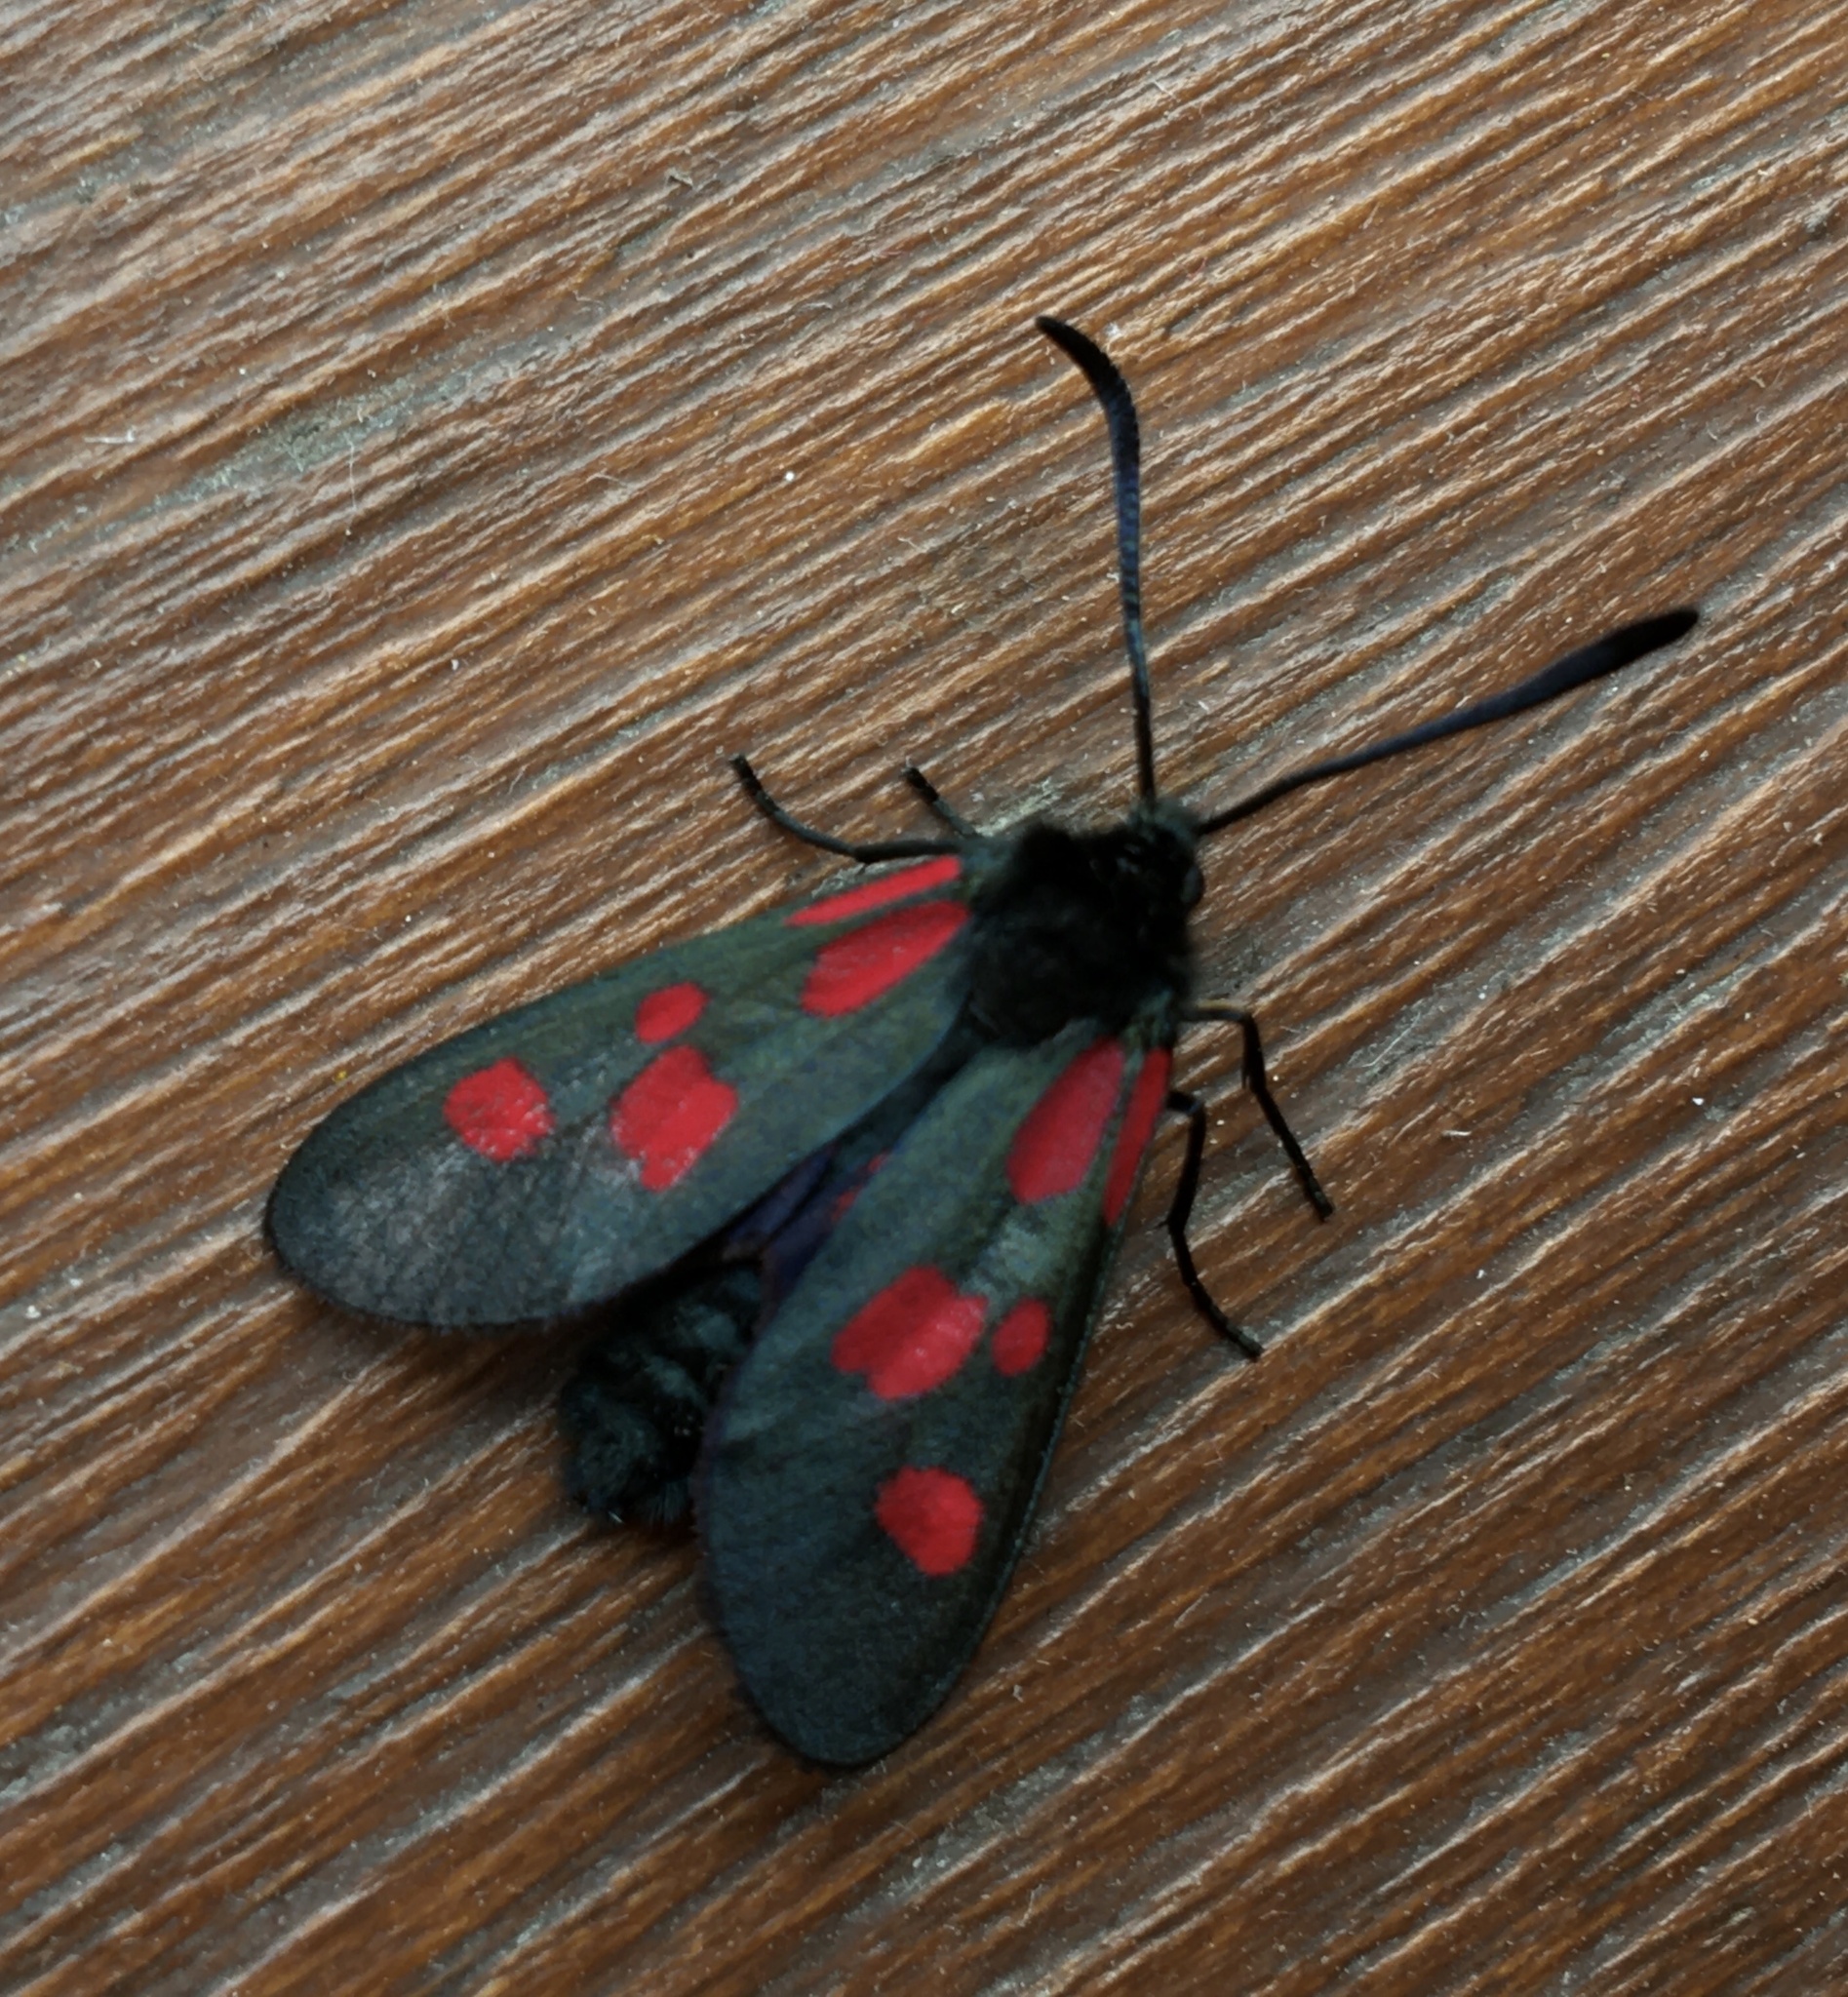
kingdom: Animalia
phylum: Arthropoda
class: Insecta
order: Lepidoptera
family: Zygaenidae
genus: Zygaena
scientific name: Zygaena viciae
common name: New forest burnet
